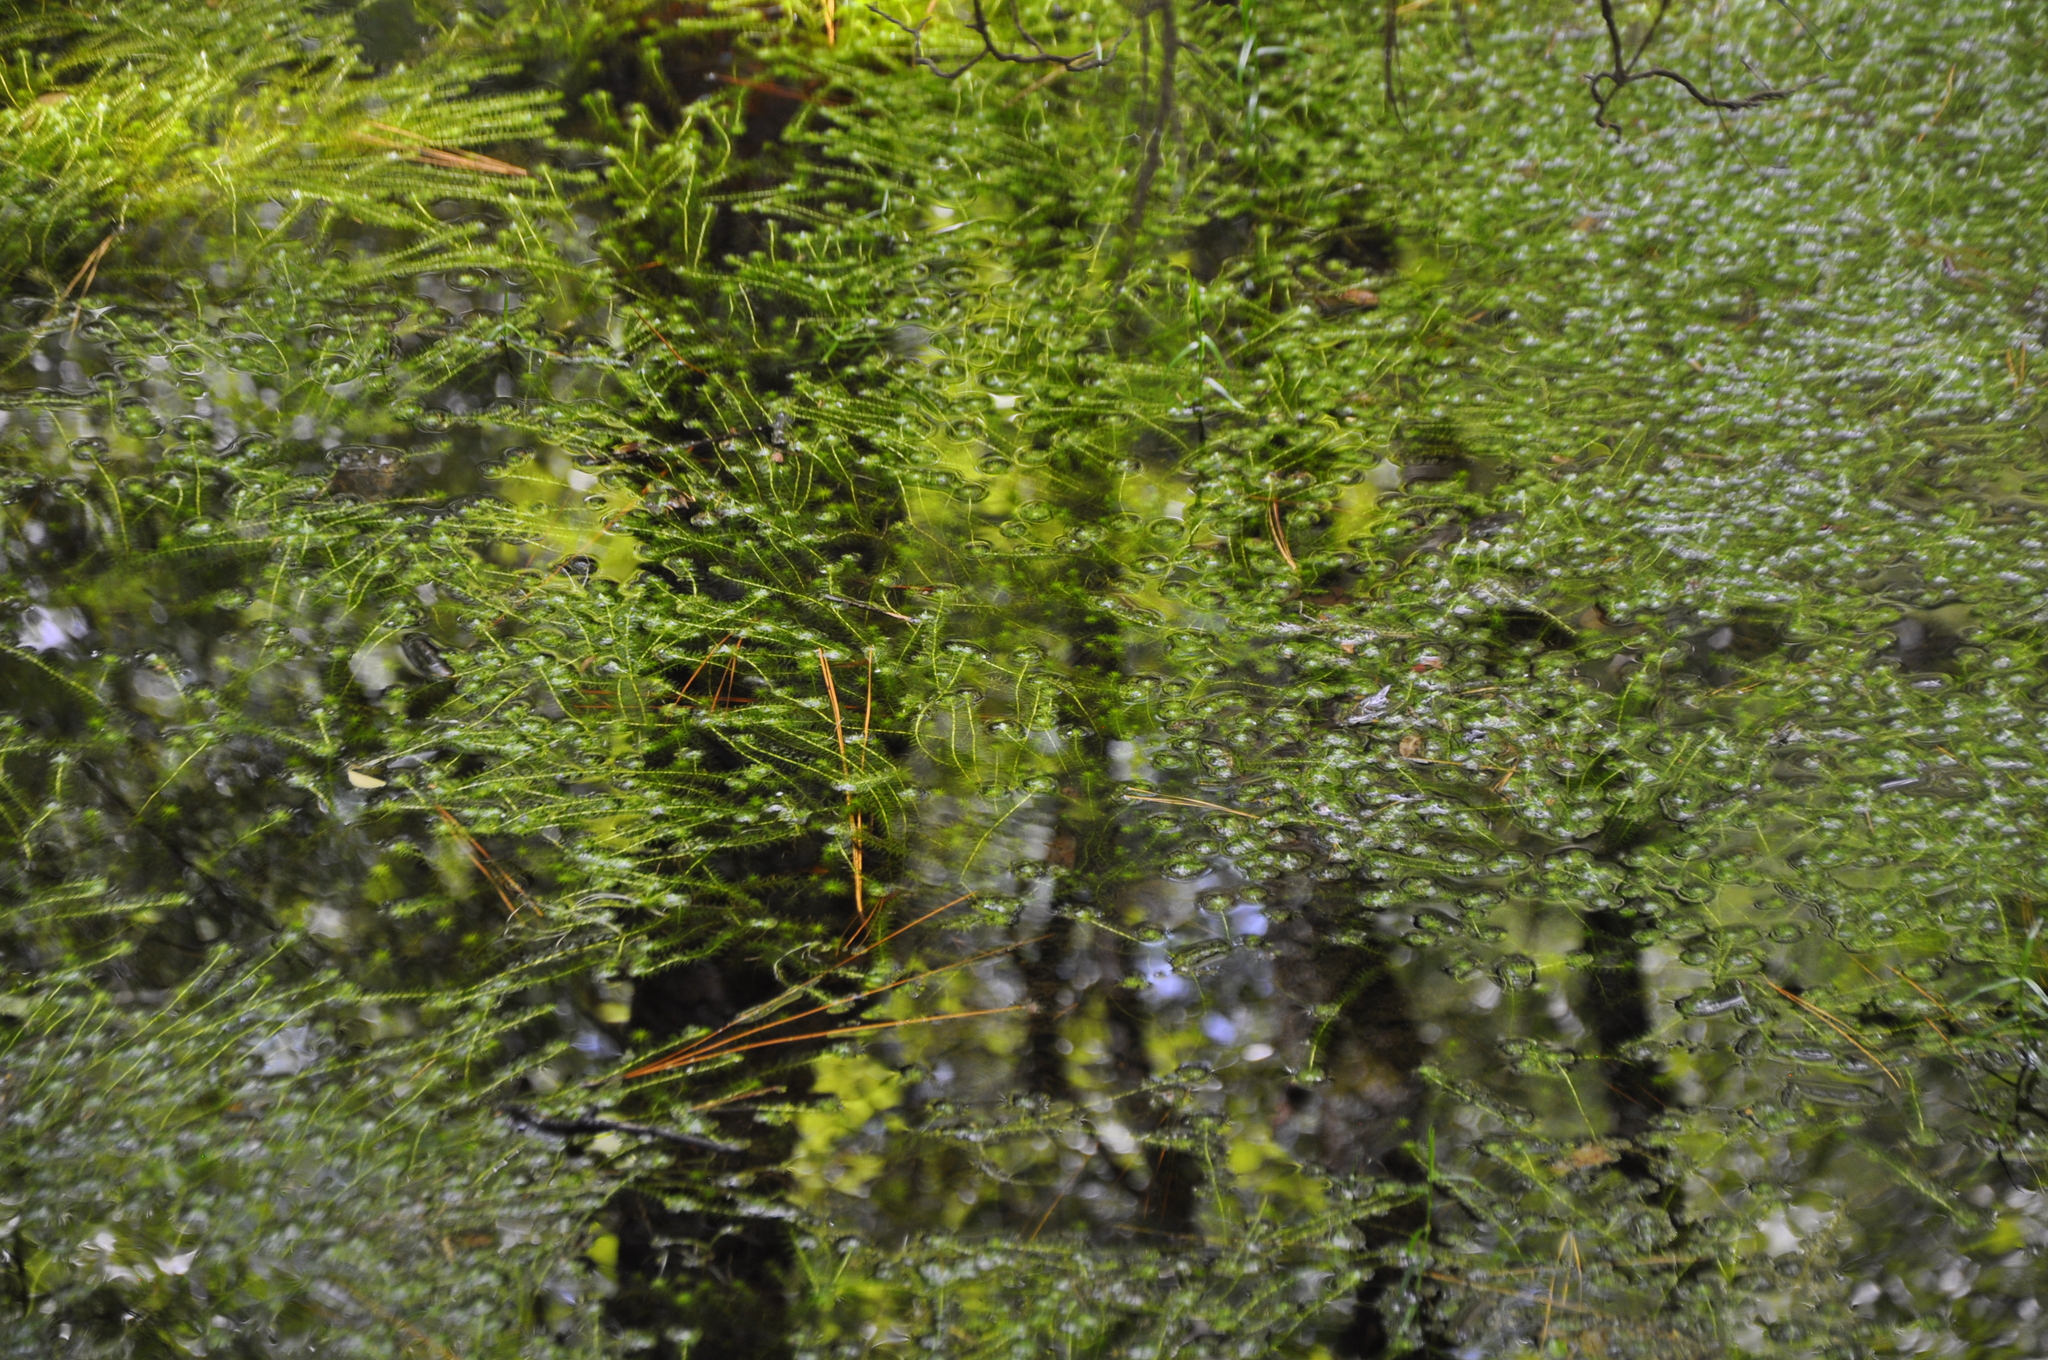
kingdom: Plantae
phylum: Tracheophyta
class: Liliopsida
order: Poales
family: Mayacaceae
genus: Mayaca
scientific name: Mayaca fluviatilis
